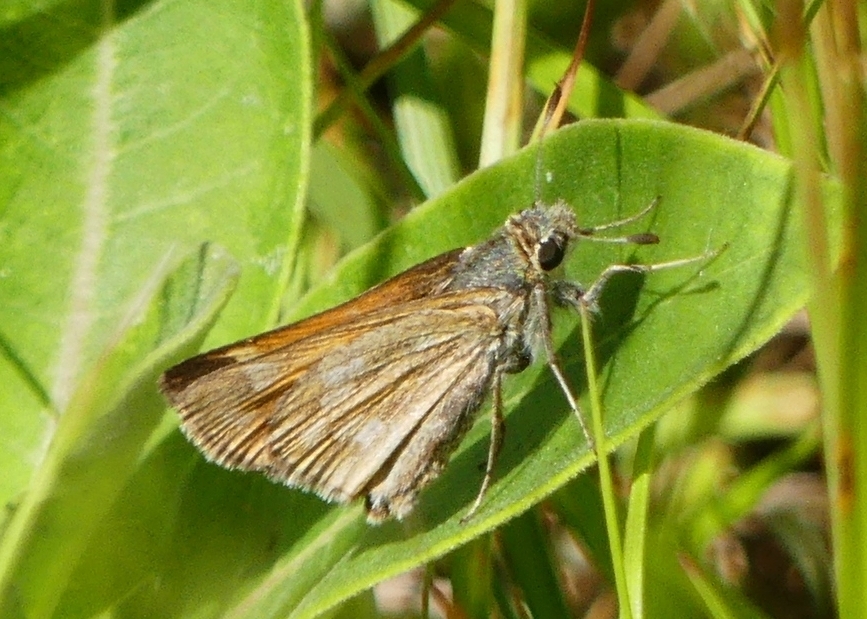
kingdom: Animalia
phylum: Arthropoda
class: Insecta
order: Lepidoptera
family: Hesperiidae
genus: Hesperia
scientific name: Hesperia sassacus
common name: Indian skipper
